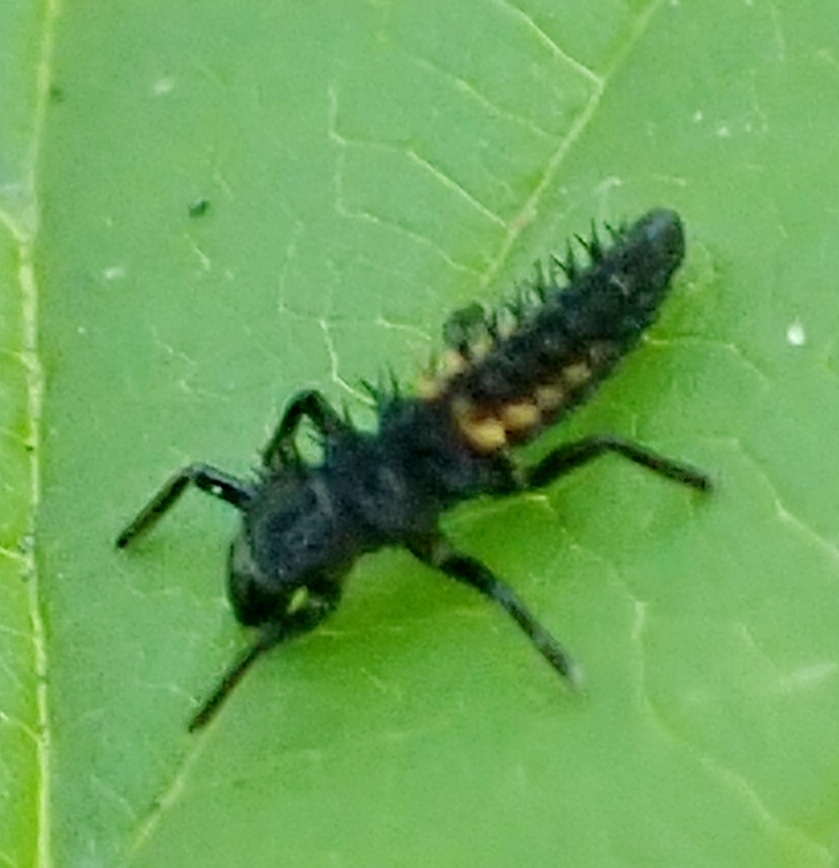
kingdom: Animalia
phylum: Arthropoda
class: Insecta
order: Coleoptera
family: Coccinellidae
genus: Harmonia
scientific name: Harmonia axyridis
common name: Harlequin ladybird
